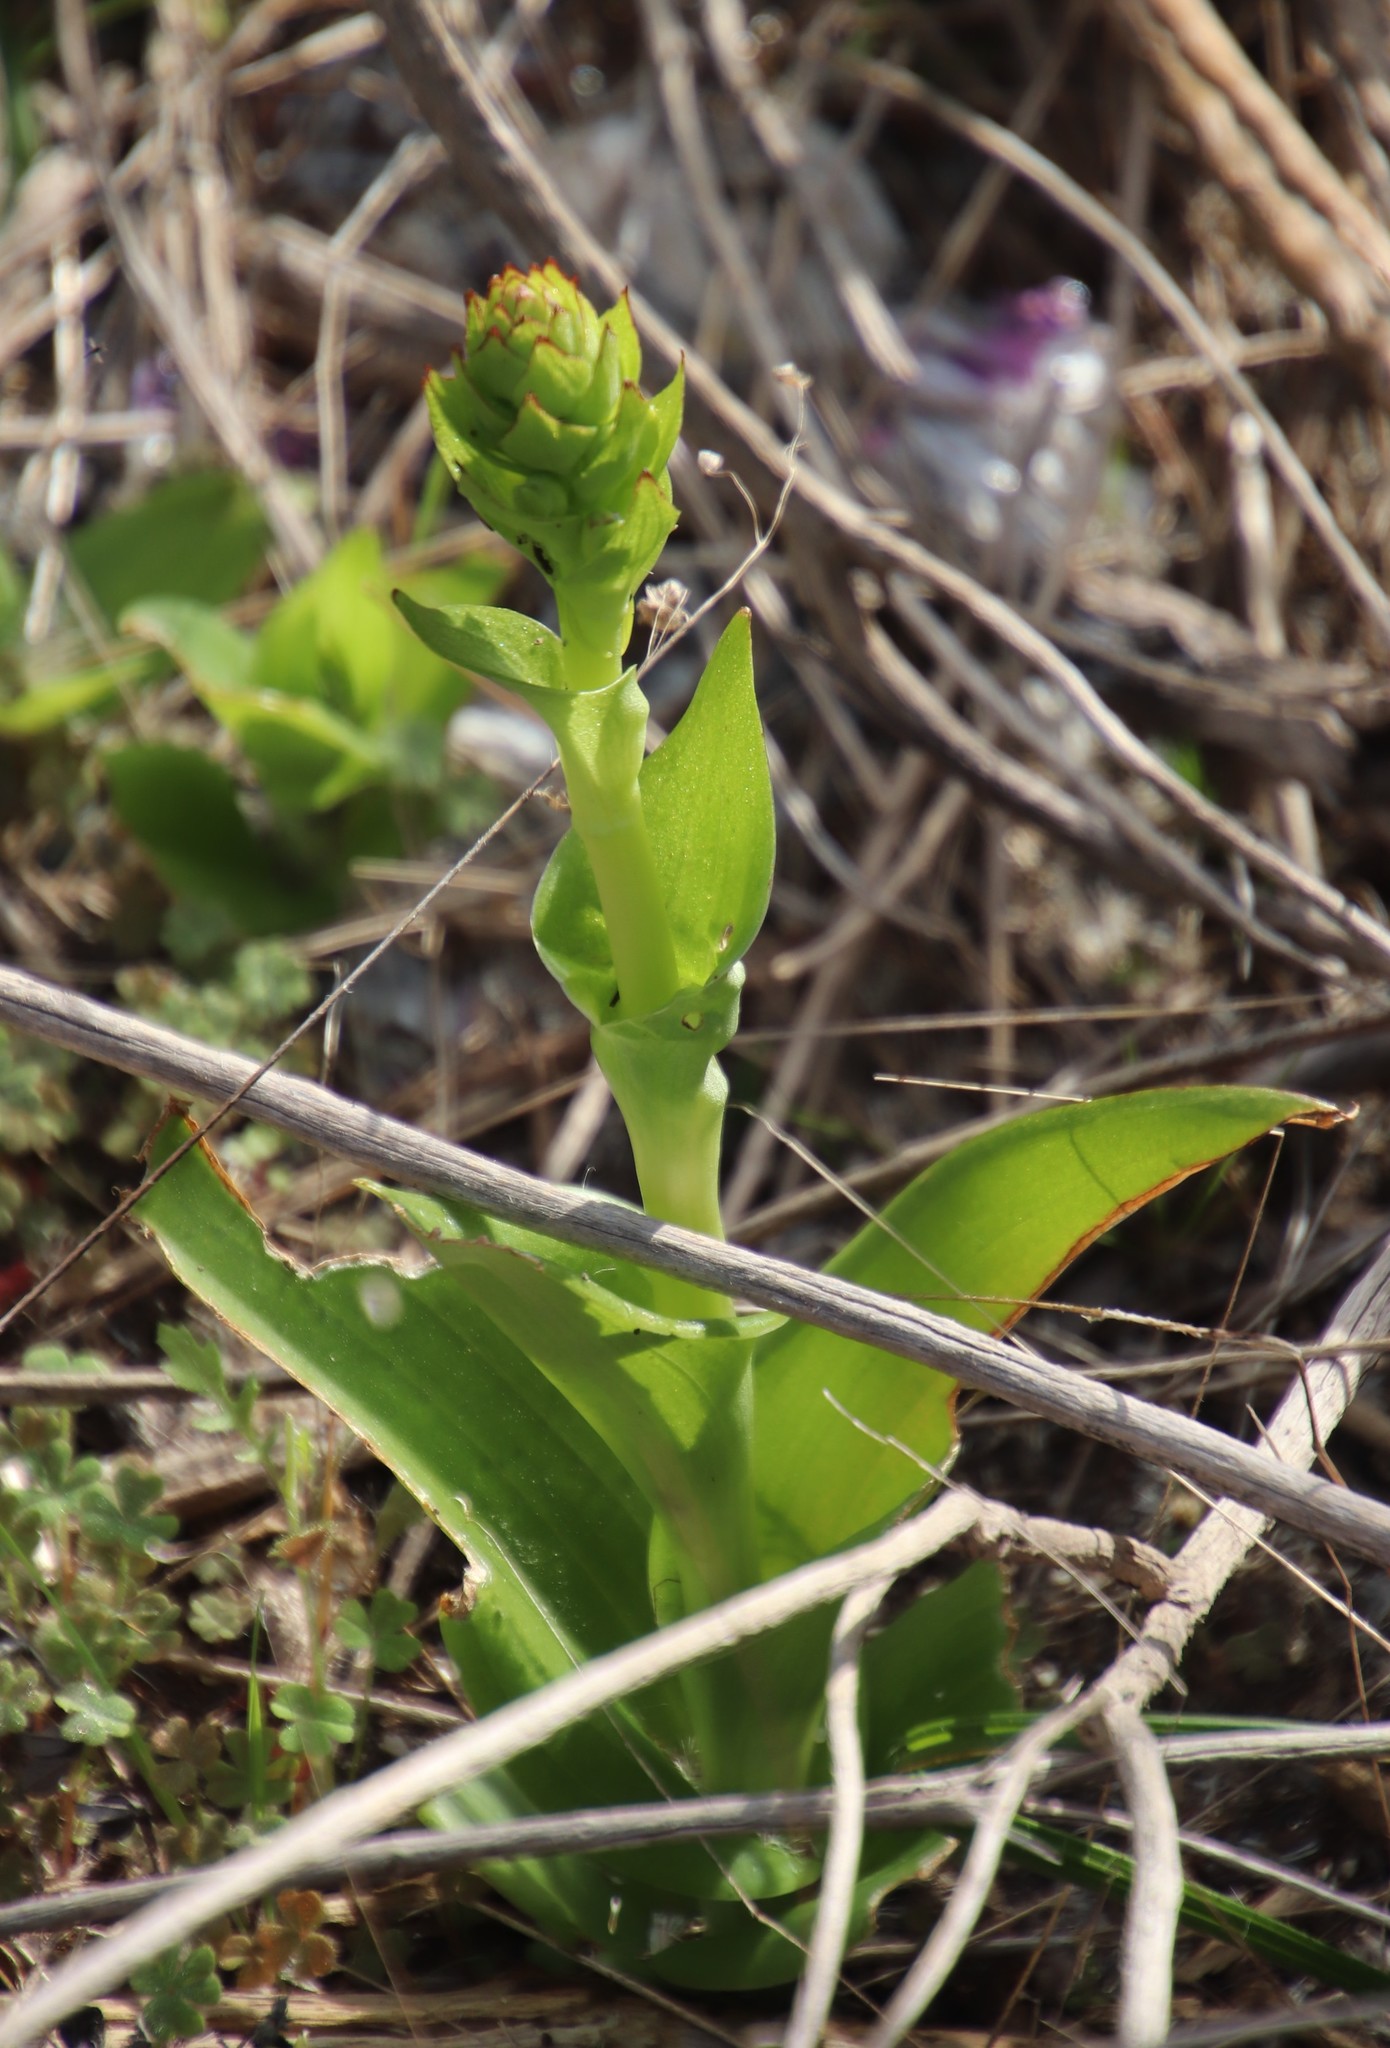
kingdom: Plantae
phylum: Tracheophyta
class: Liliopsida
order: Asparagales
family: Orchidaceae
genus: Satyrium
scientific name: Satyrium odorum
